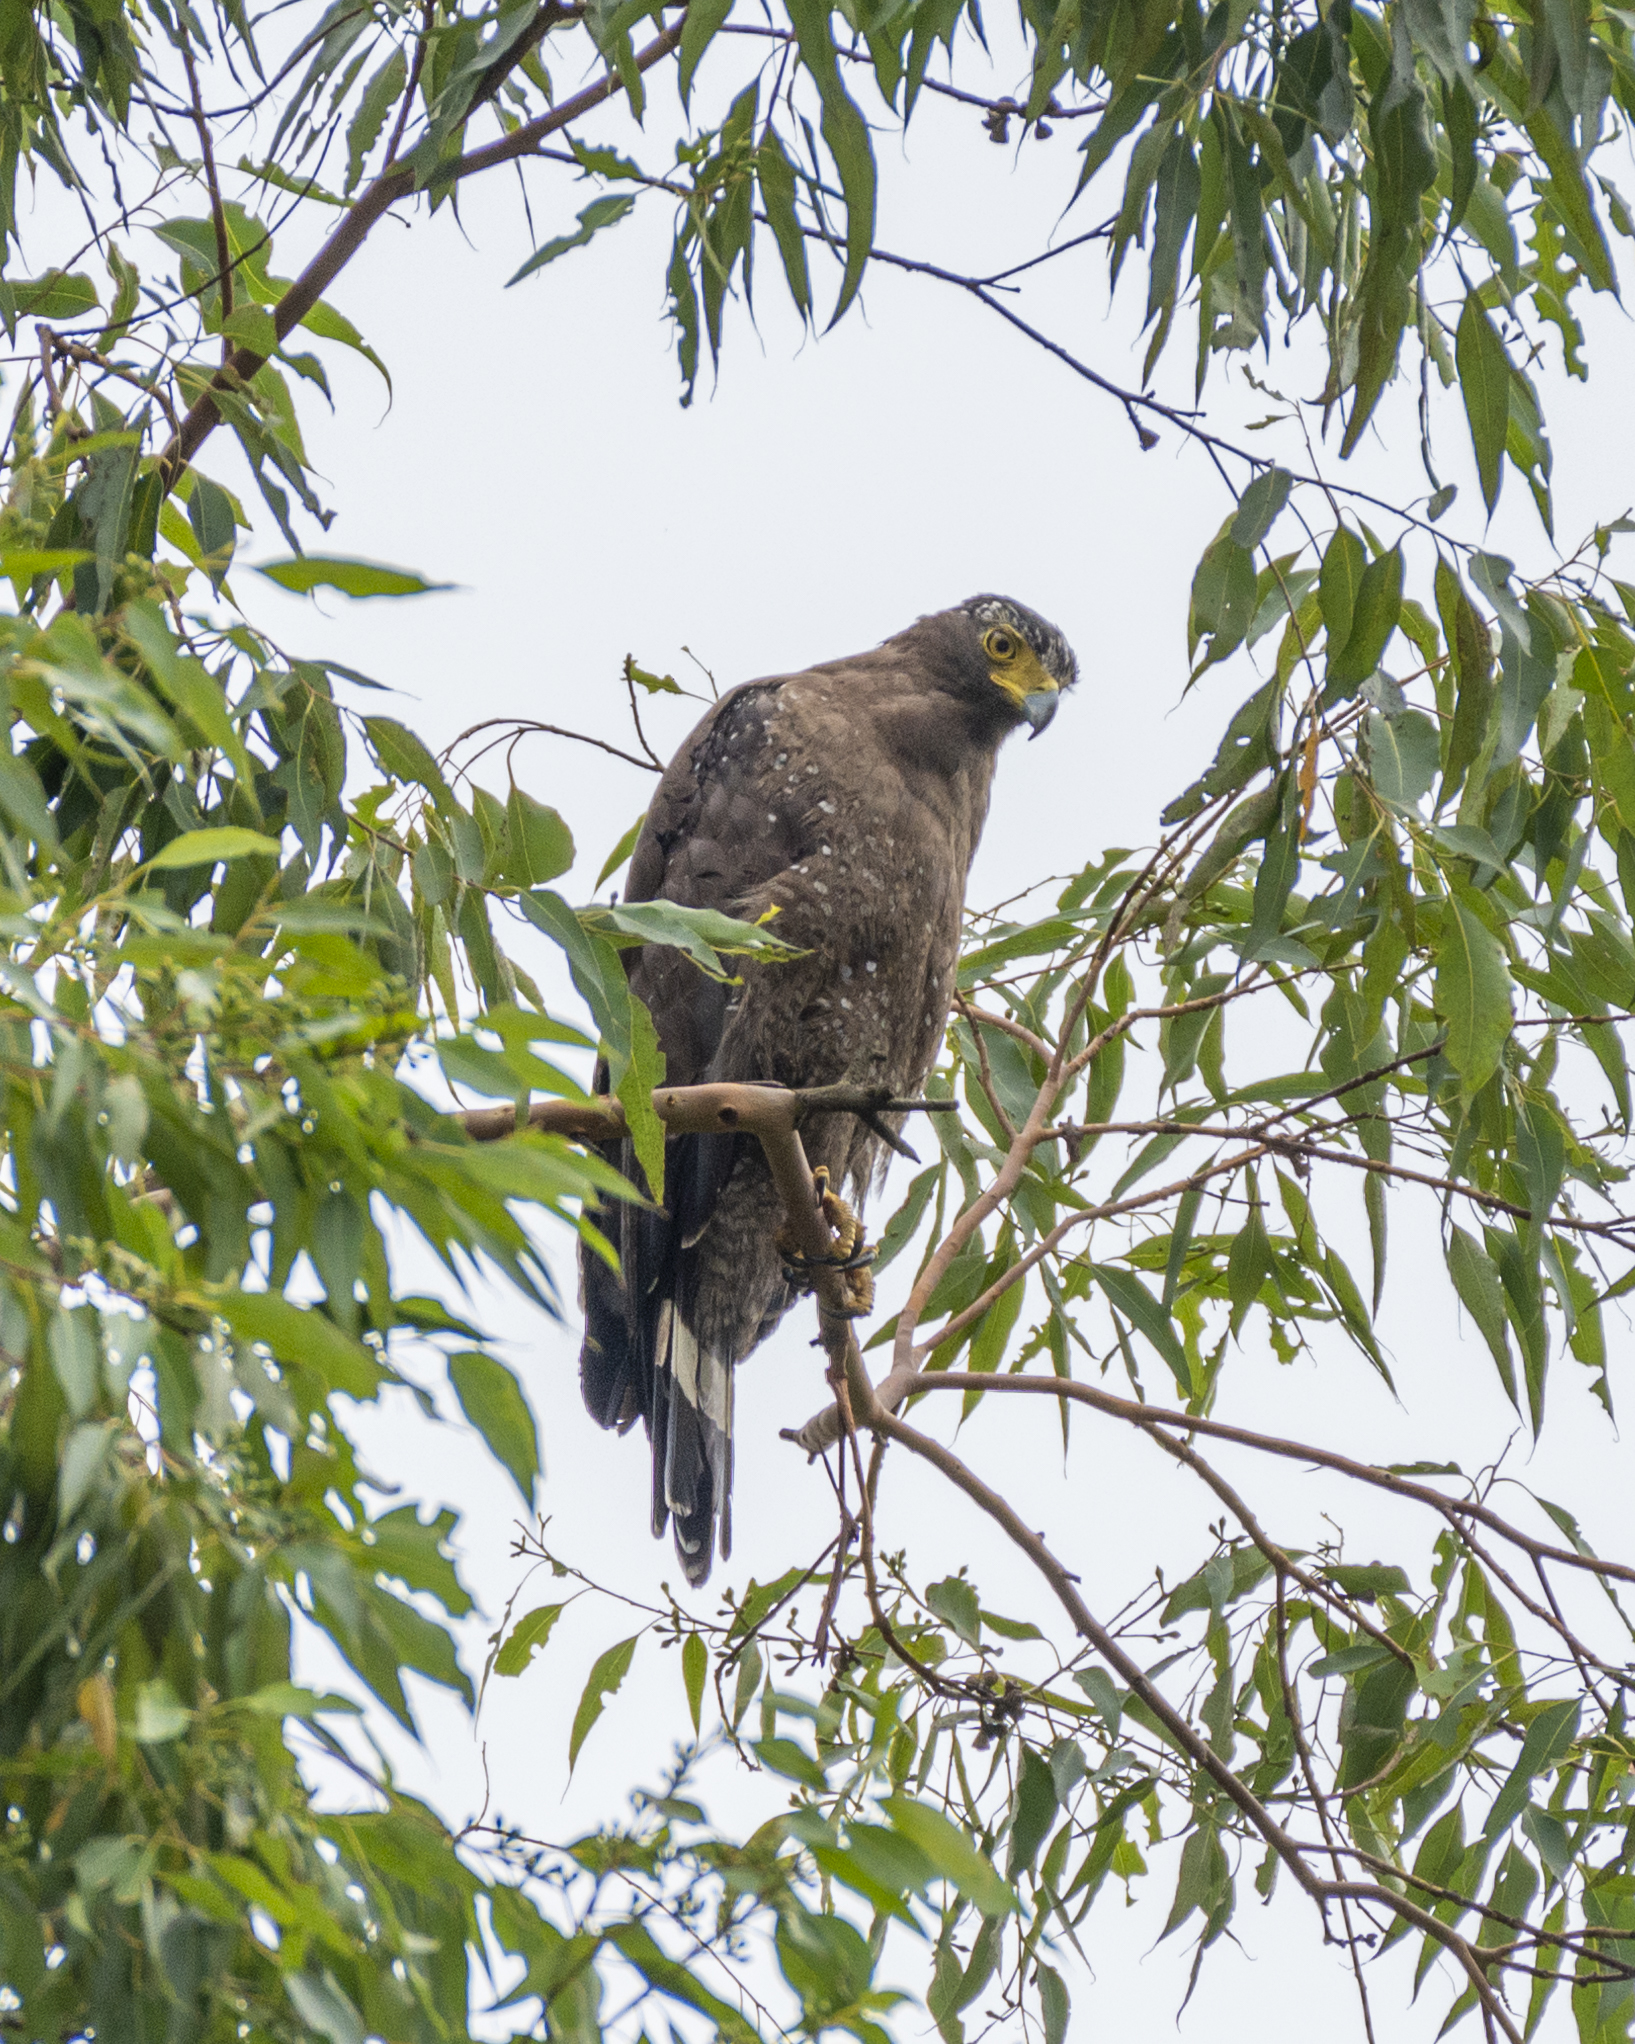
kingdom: Animalia
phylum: Chordata
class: Aves
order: Accipitriformes
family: Accipitridae
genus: Spilornis
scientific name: Spilornis cheela
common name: Crested serpent eagle
